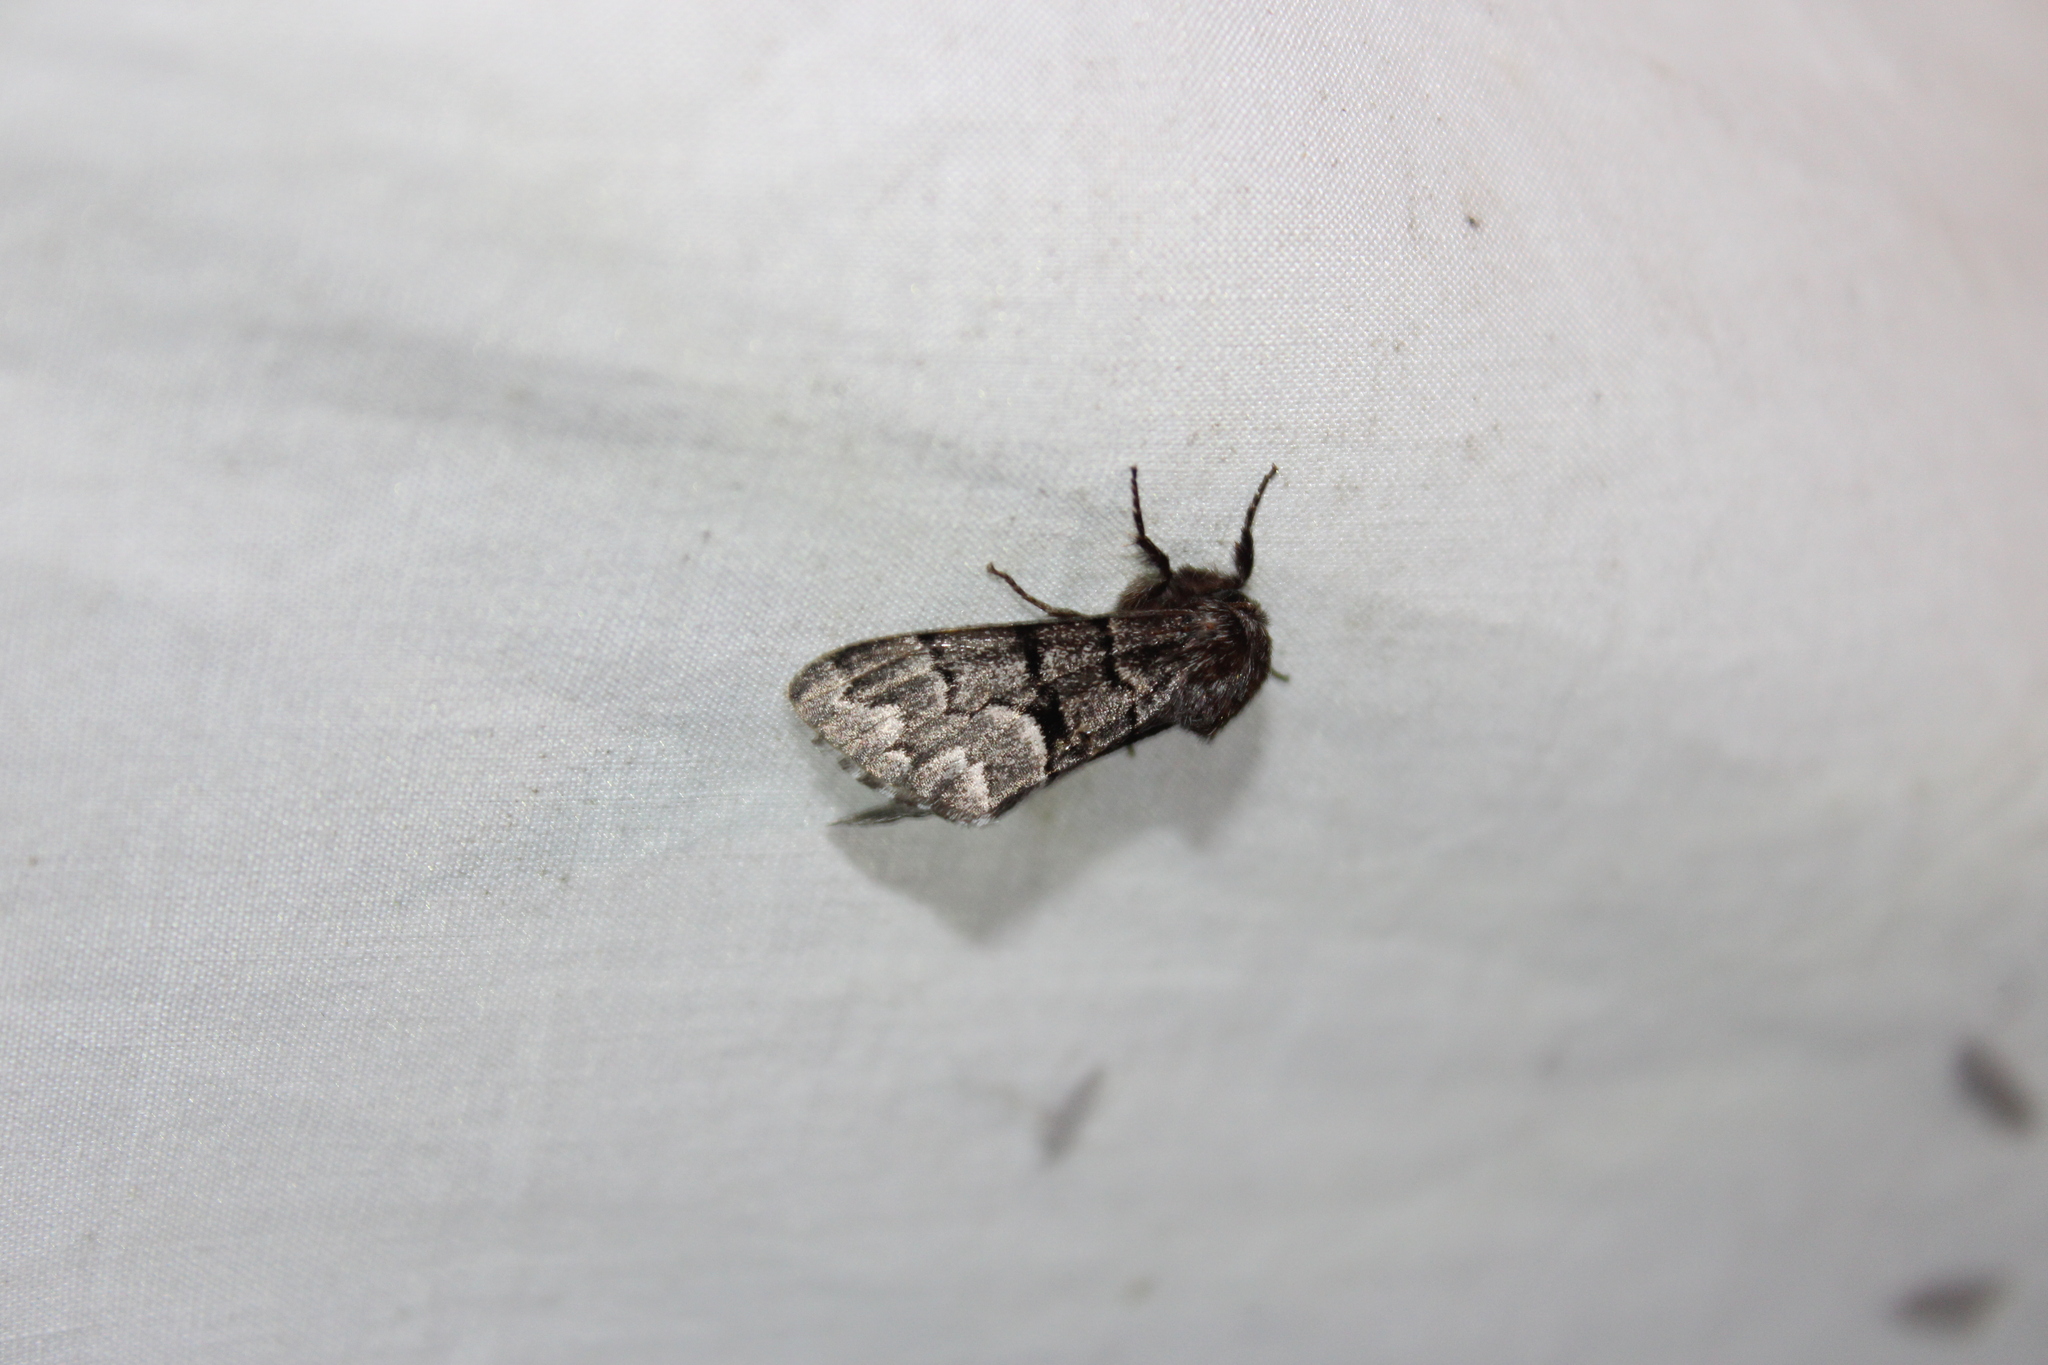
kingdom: Animalia
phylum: Arthropoda
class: Insecta
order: Lepidoptera
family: Noctuidae
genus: Panthea
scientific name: Panthea furcilla
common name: Eastern panthea moth
